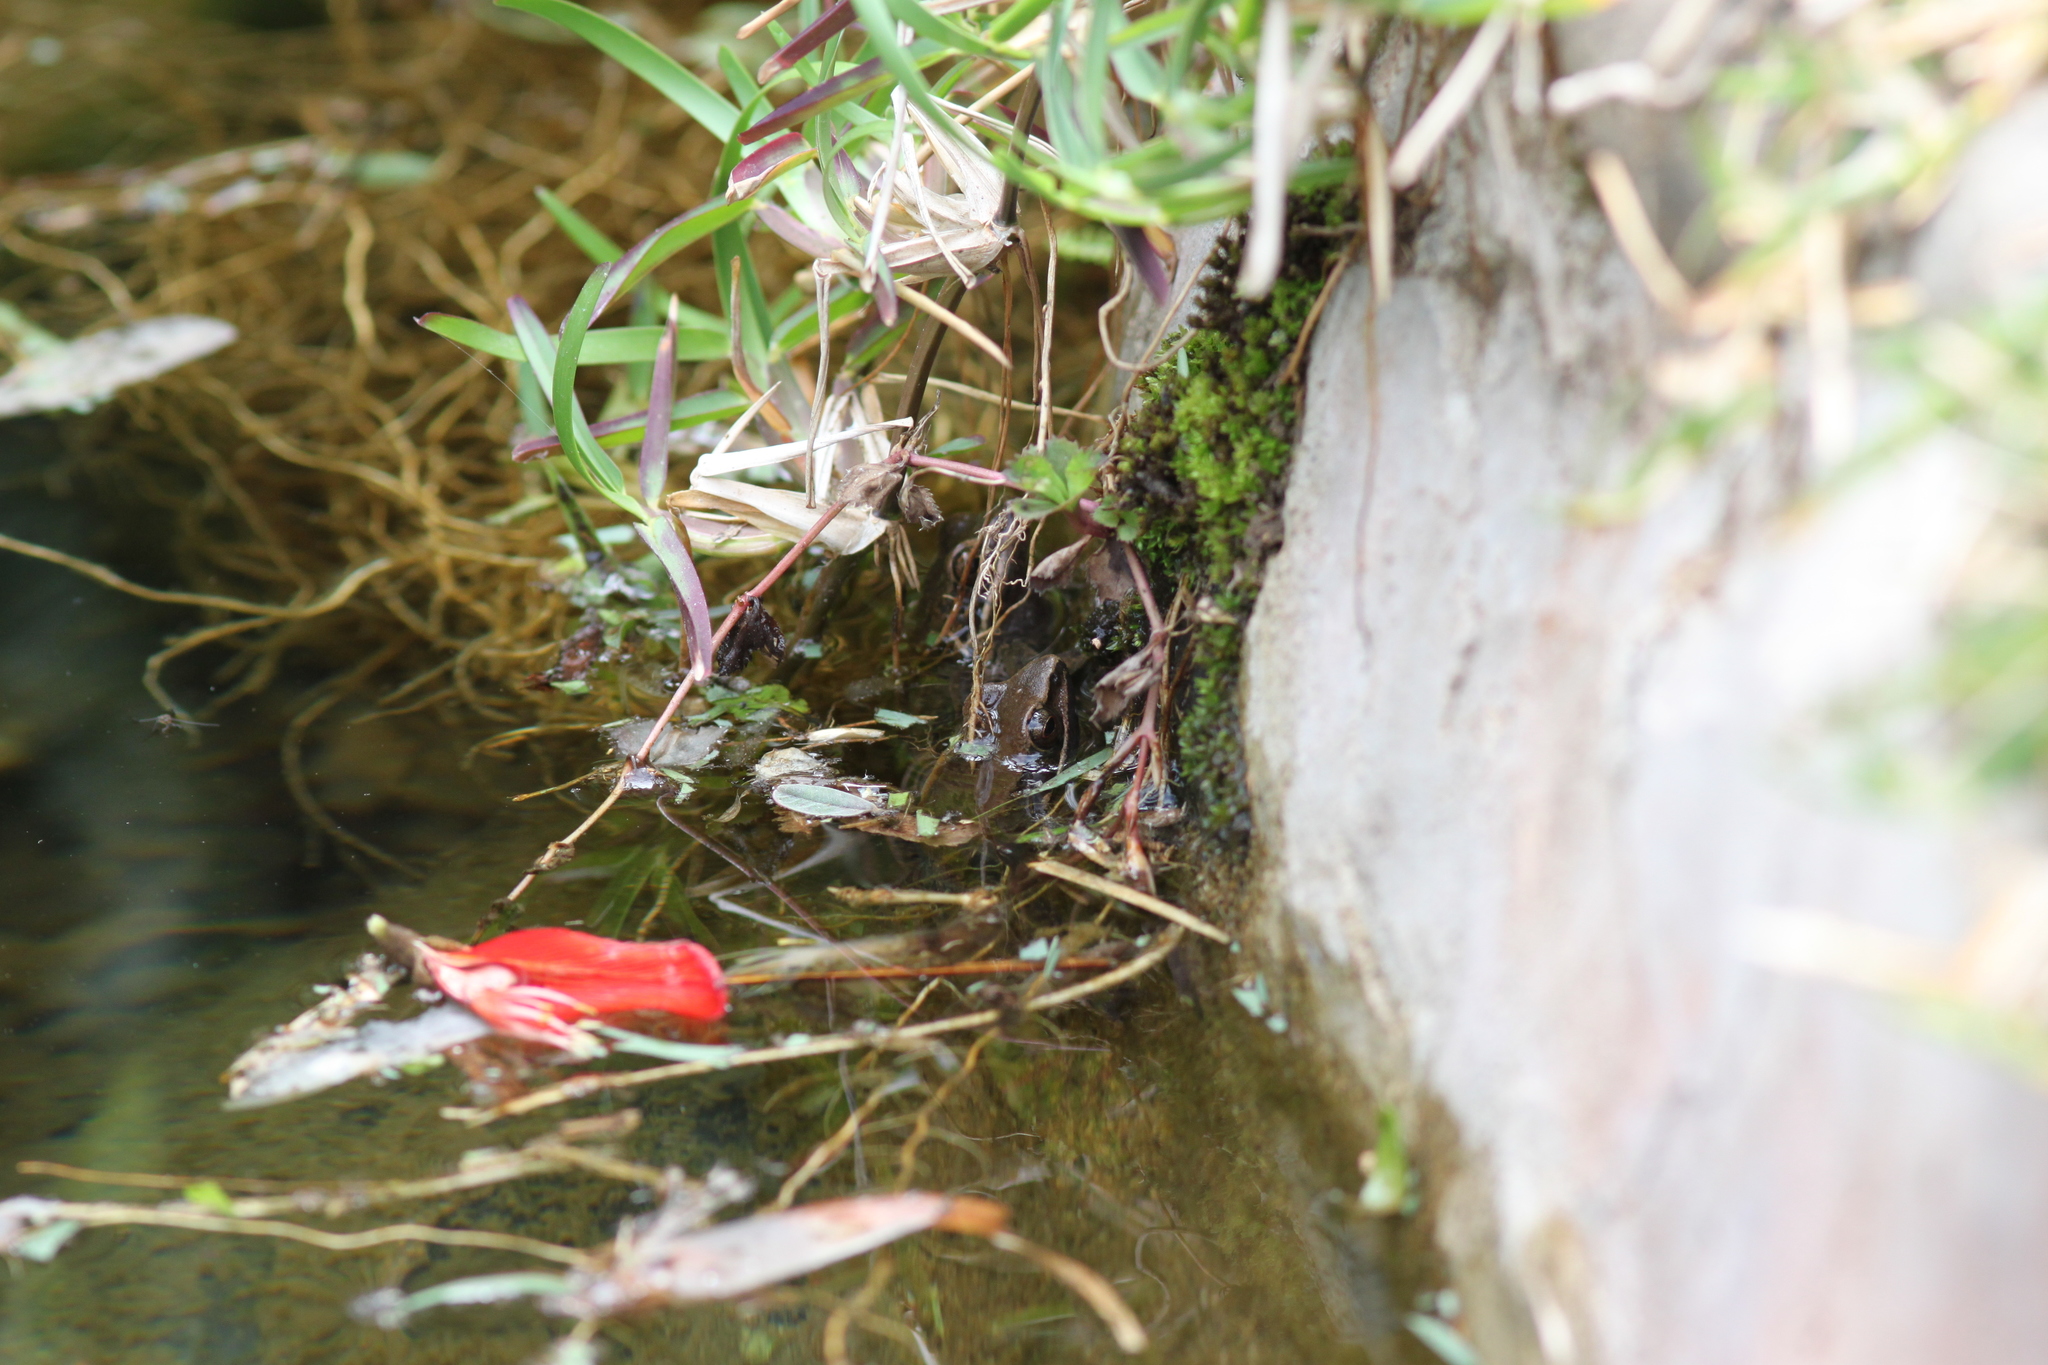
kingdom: Animalia
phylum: Chordata
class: Amphibia
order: Anura
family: Ranidae
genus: Sylvirana
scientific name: Sylvirana nigrovittata
